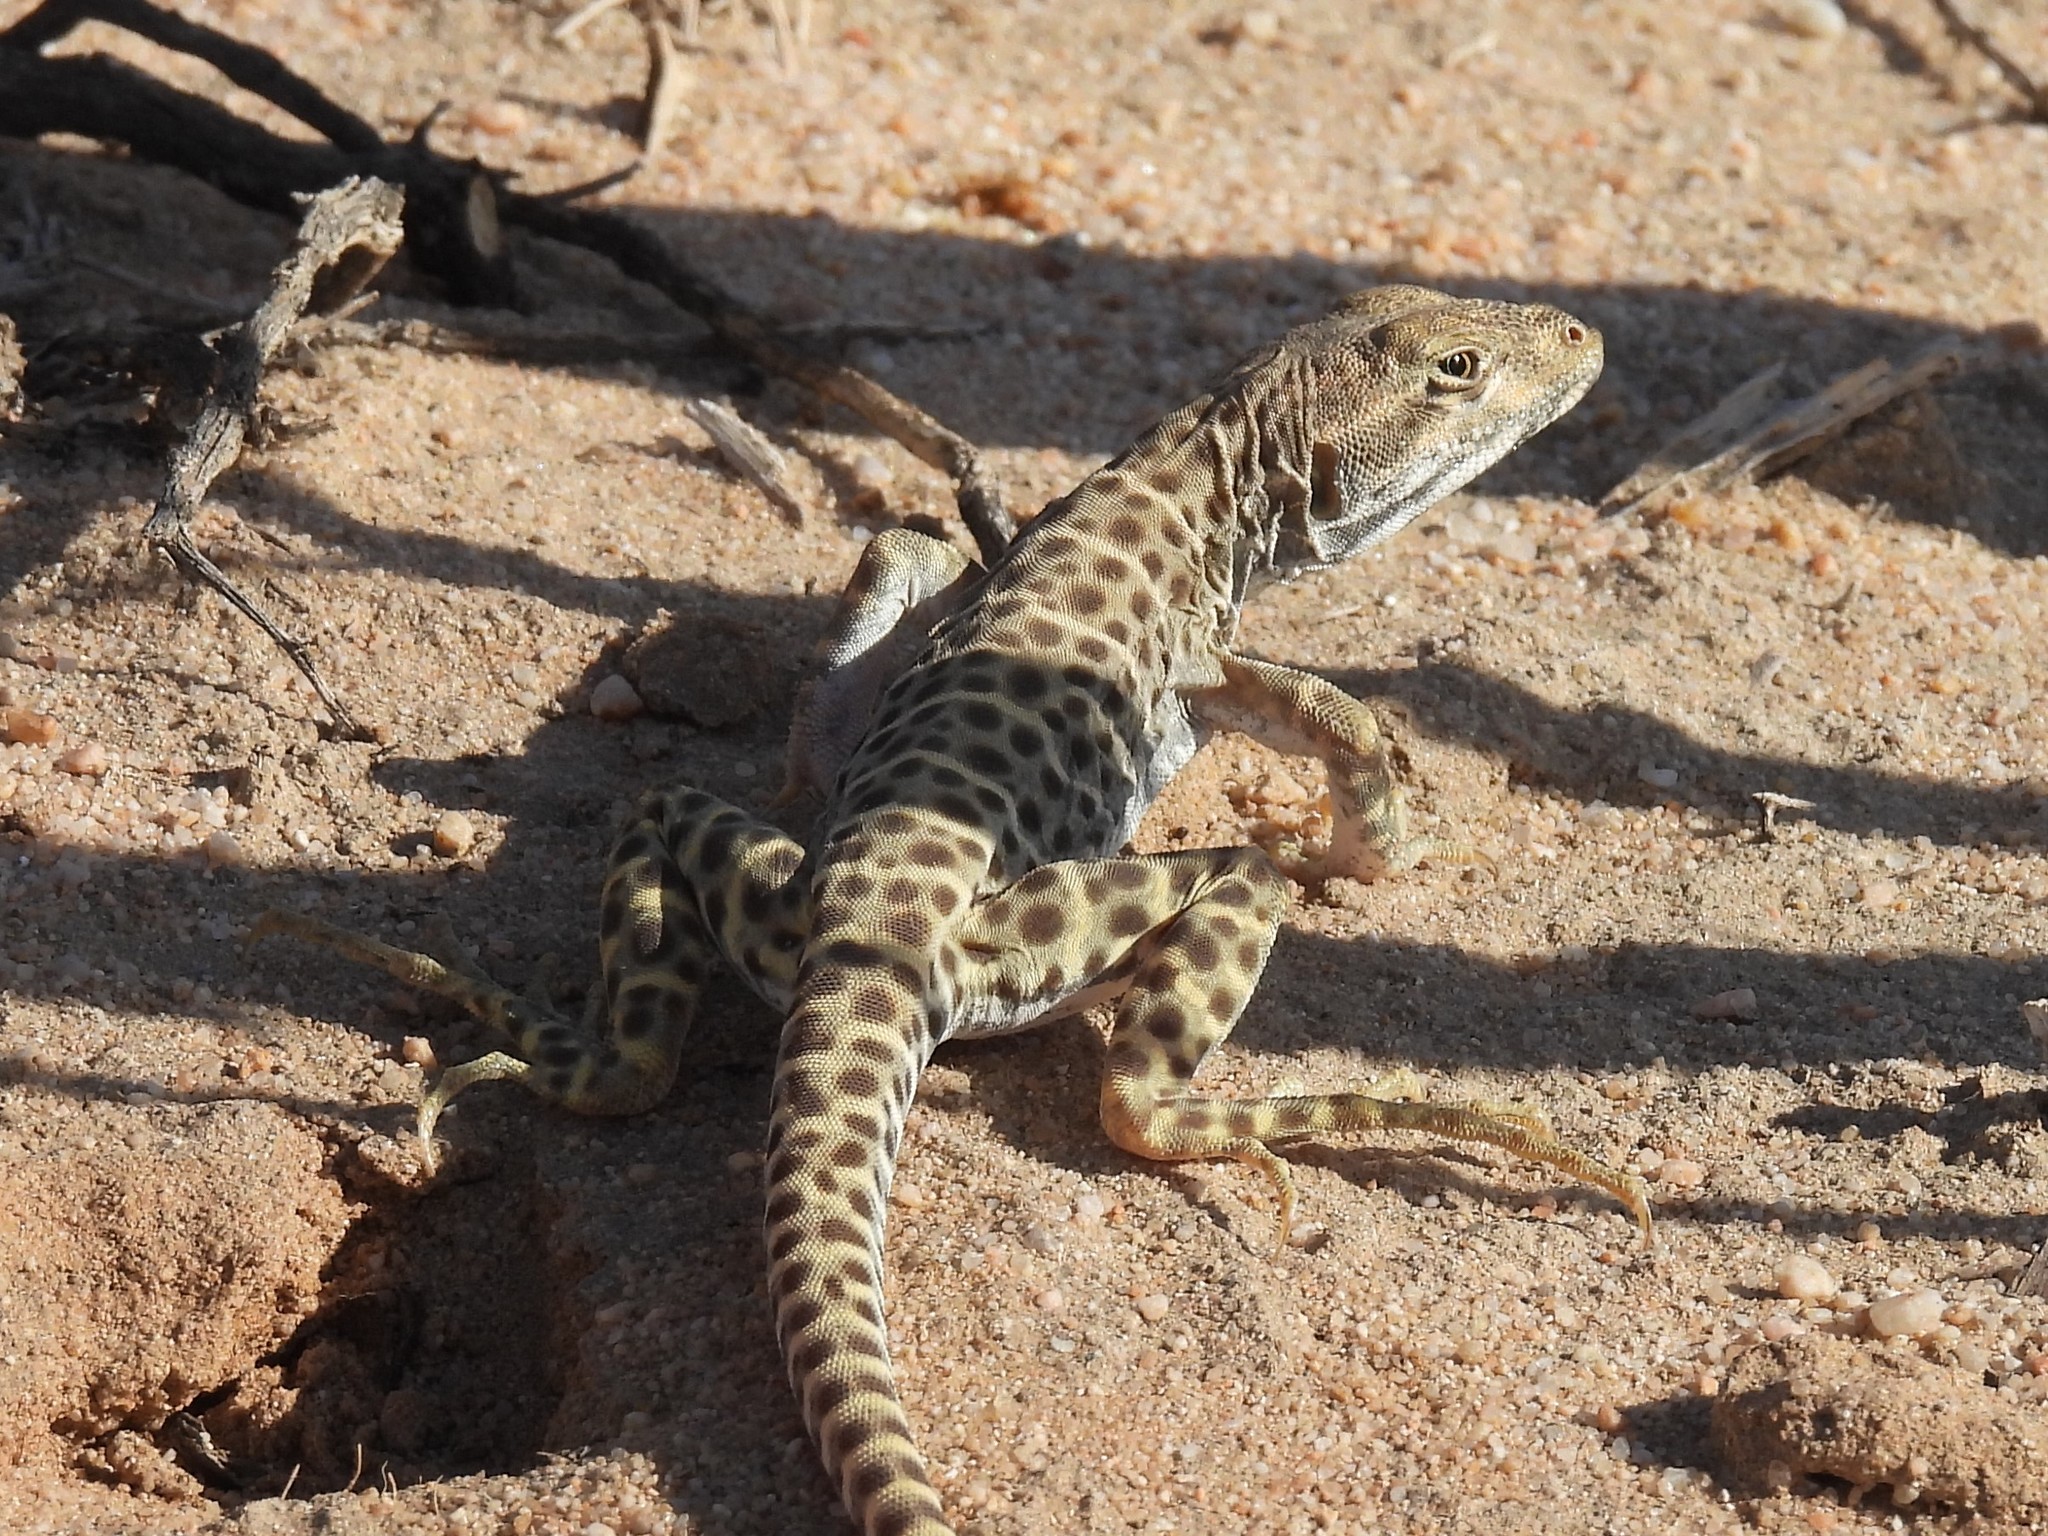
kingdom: Animalia
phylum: Chordata
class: Squamata
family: Crotaphytidae
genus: Gambelia
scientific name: Gambelia wislizenii
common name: Longnose leopard lizard
